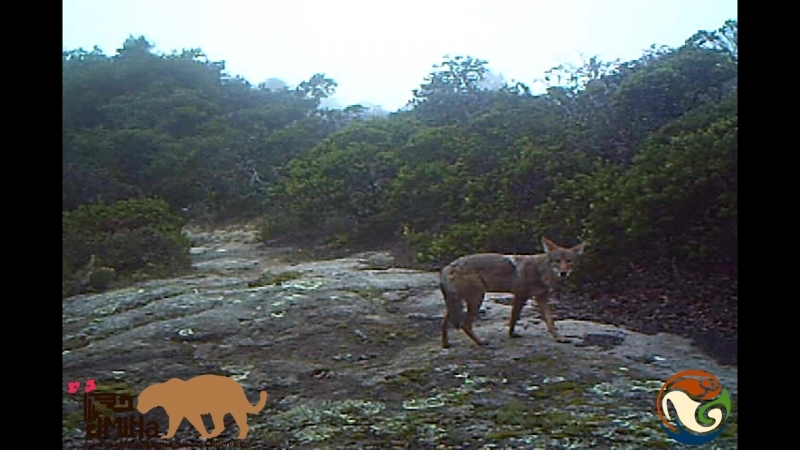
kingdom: Animalia
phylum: Chordata
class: Mammalia
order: Carnivora
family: Canidae
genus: Canis
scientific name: Canis latrans
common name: Coyote
